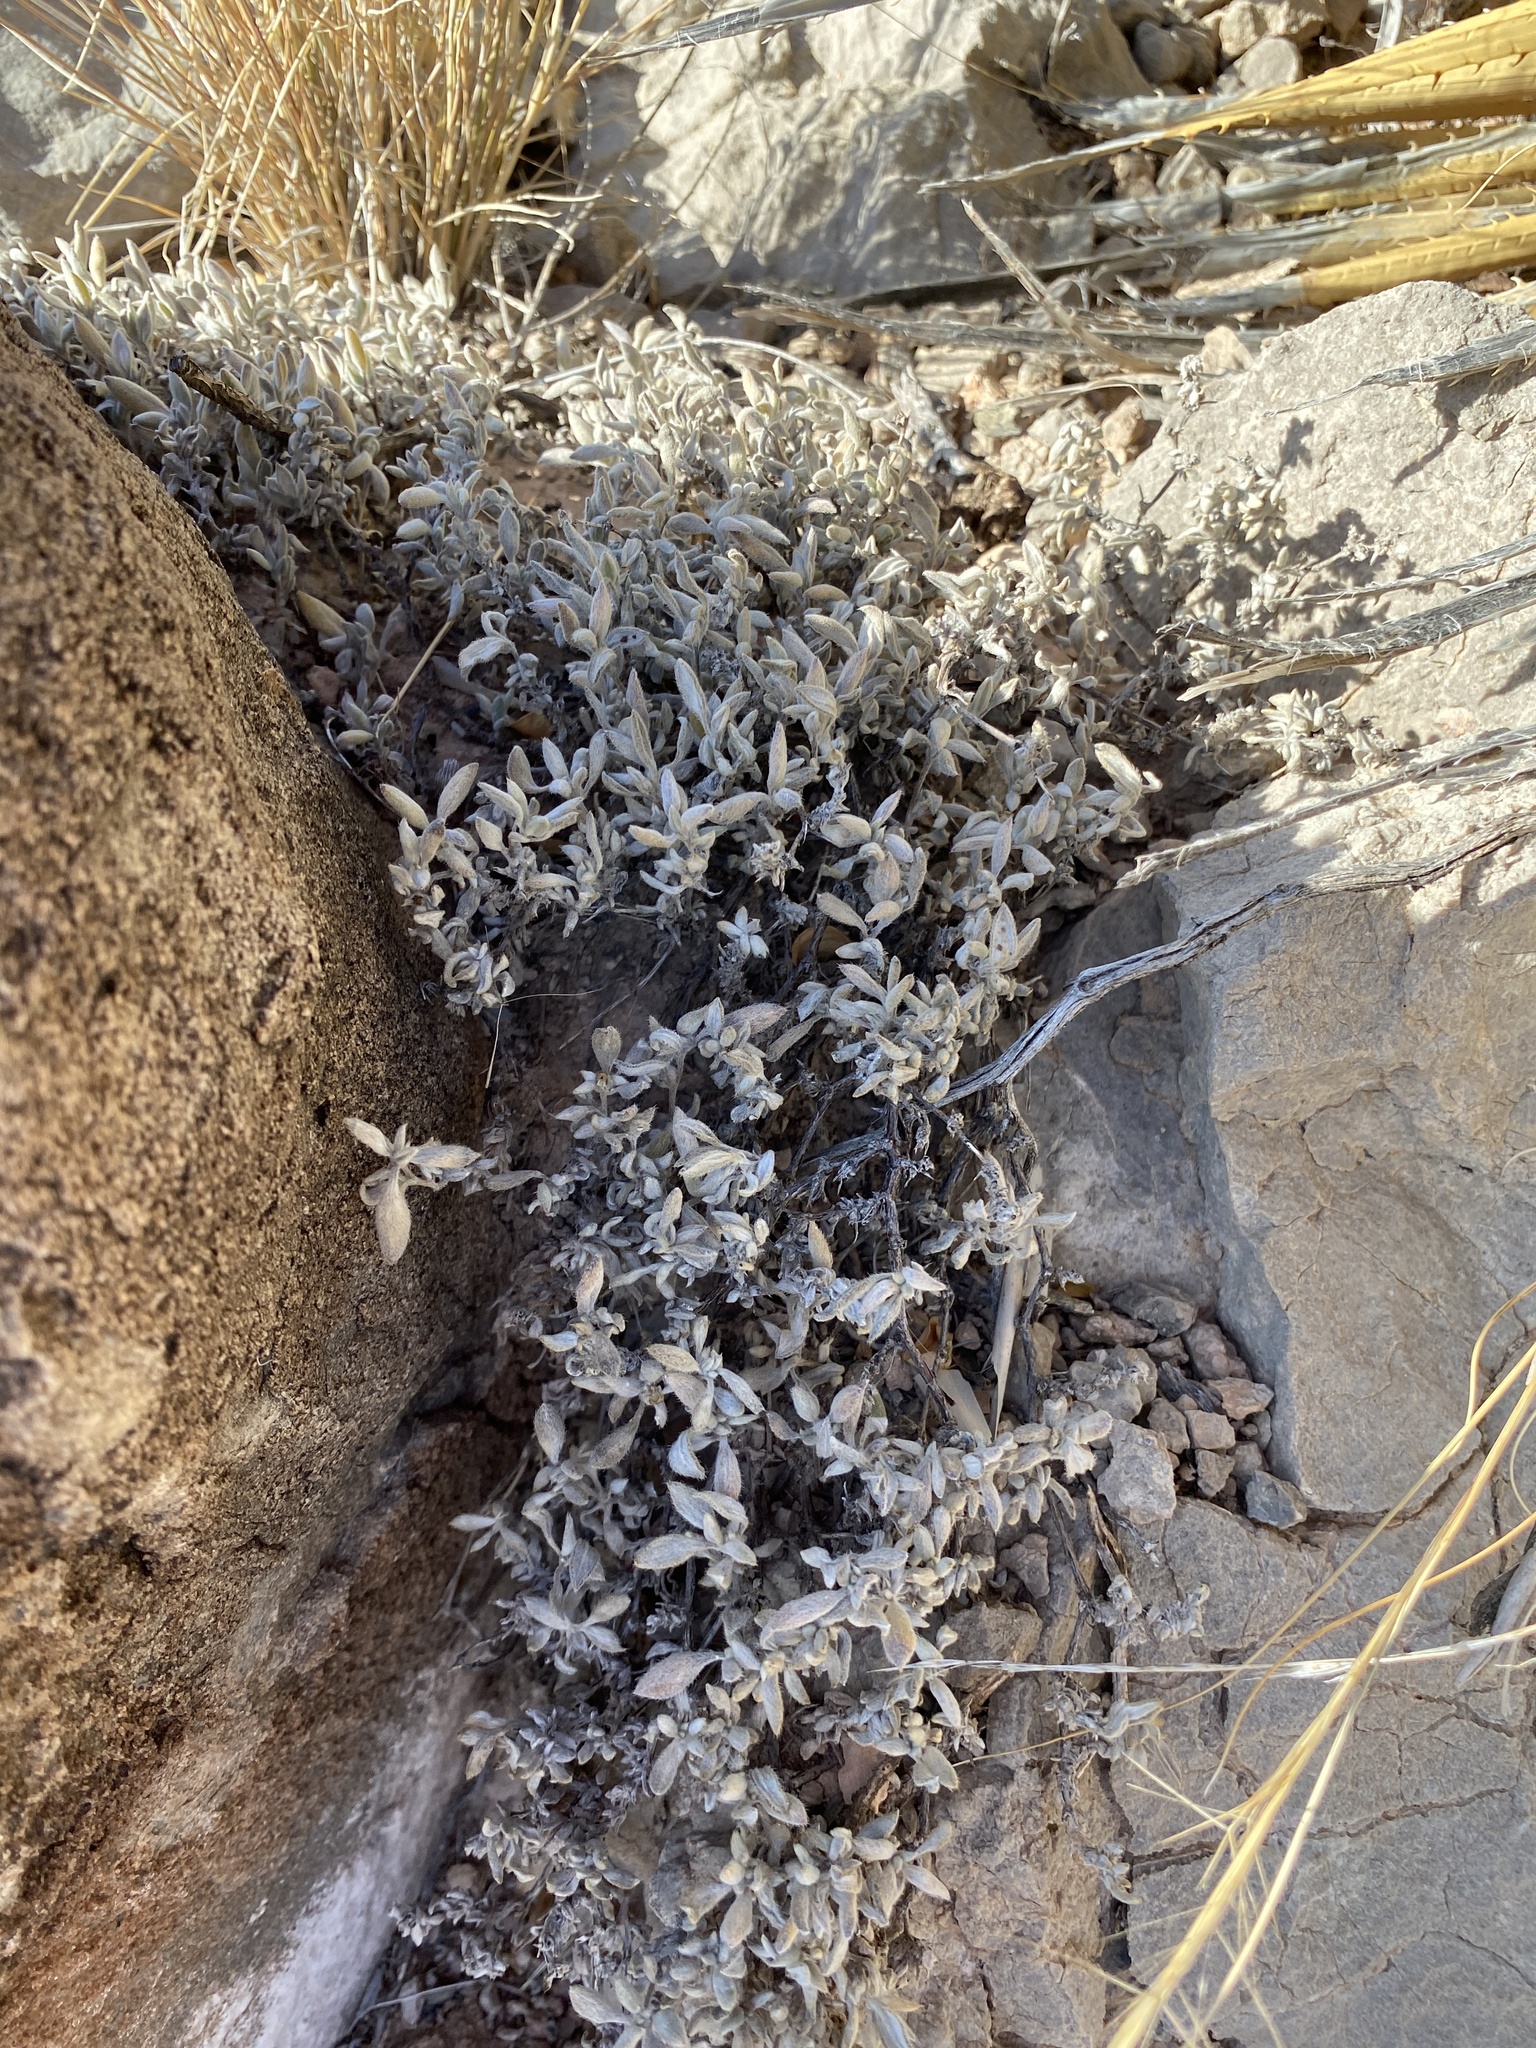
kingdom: Plantae
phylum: Tracheophyta
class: Magnoliopsida
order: Boraginales
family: Ehretiaceae
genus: Tiquilia
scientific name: Tiquilia canescens
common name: Hairy tiquilia
